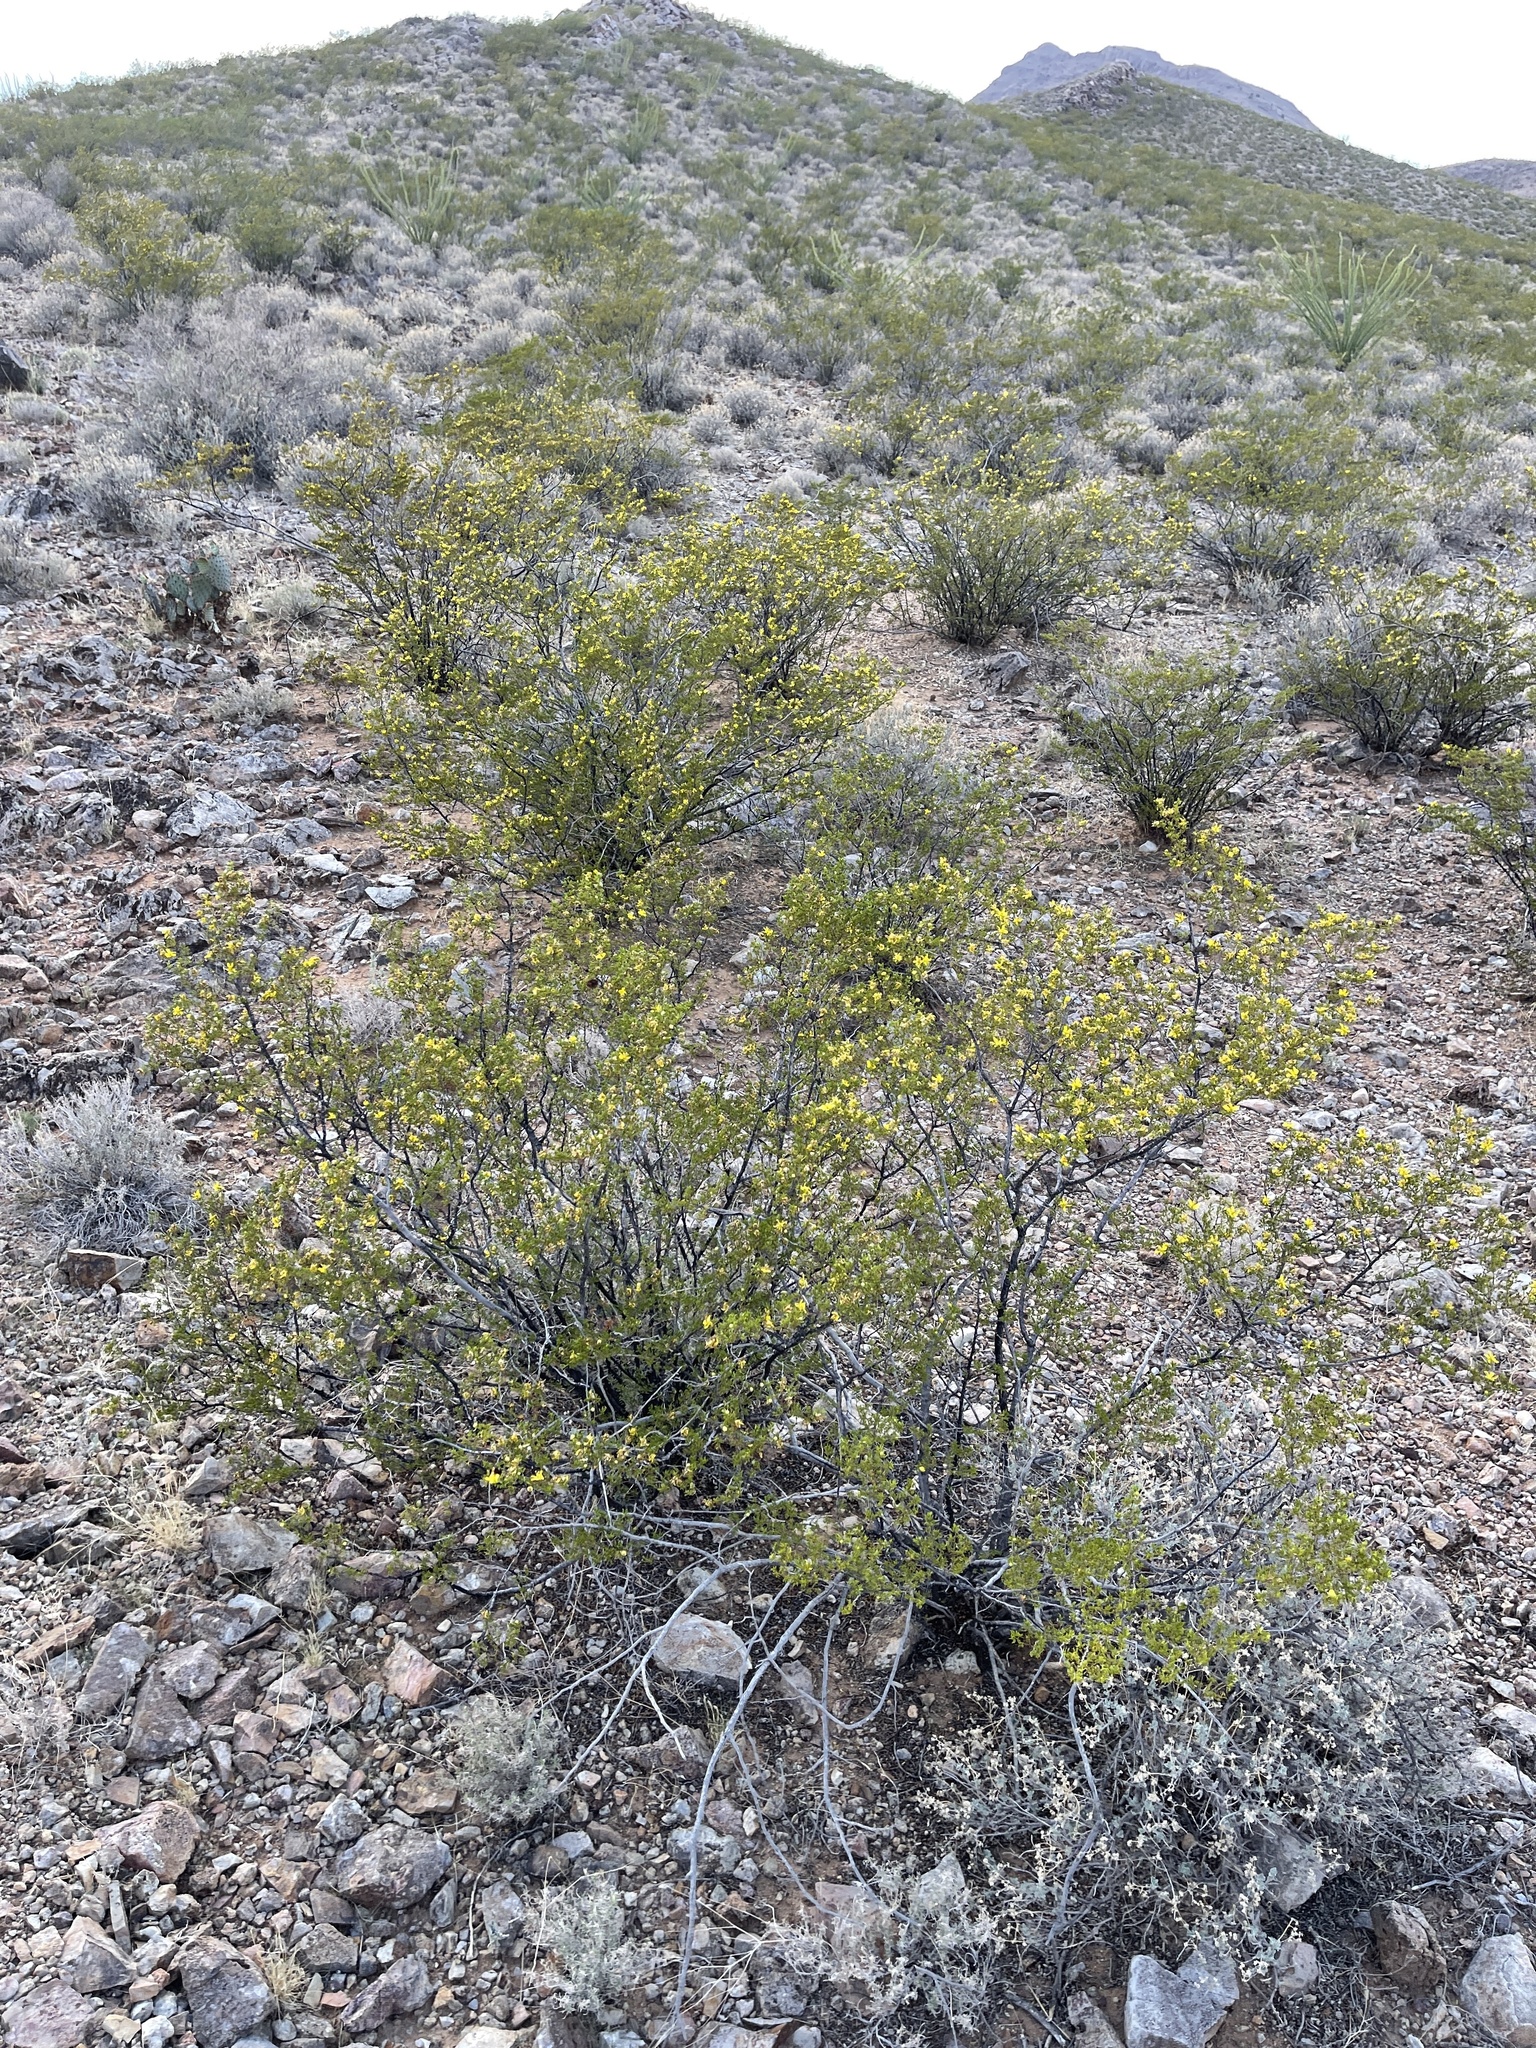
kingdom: Plantae
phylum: Tracheophyta
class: Magnoliopsida
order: Zygophyllales
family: Zygophyllaceae
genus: Larrea
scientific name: Larrea tridentata
